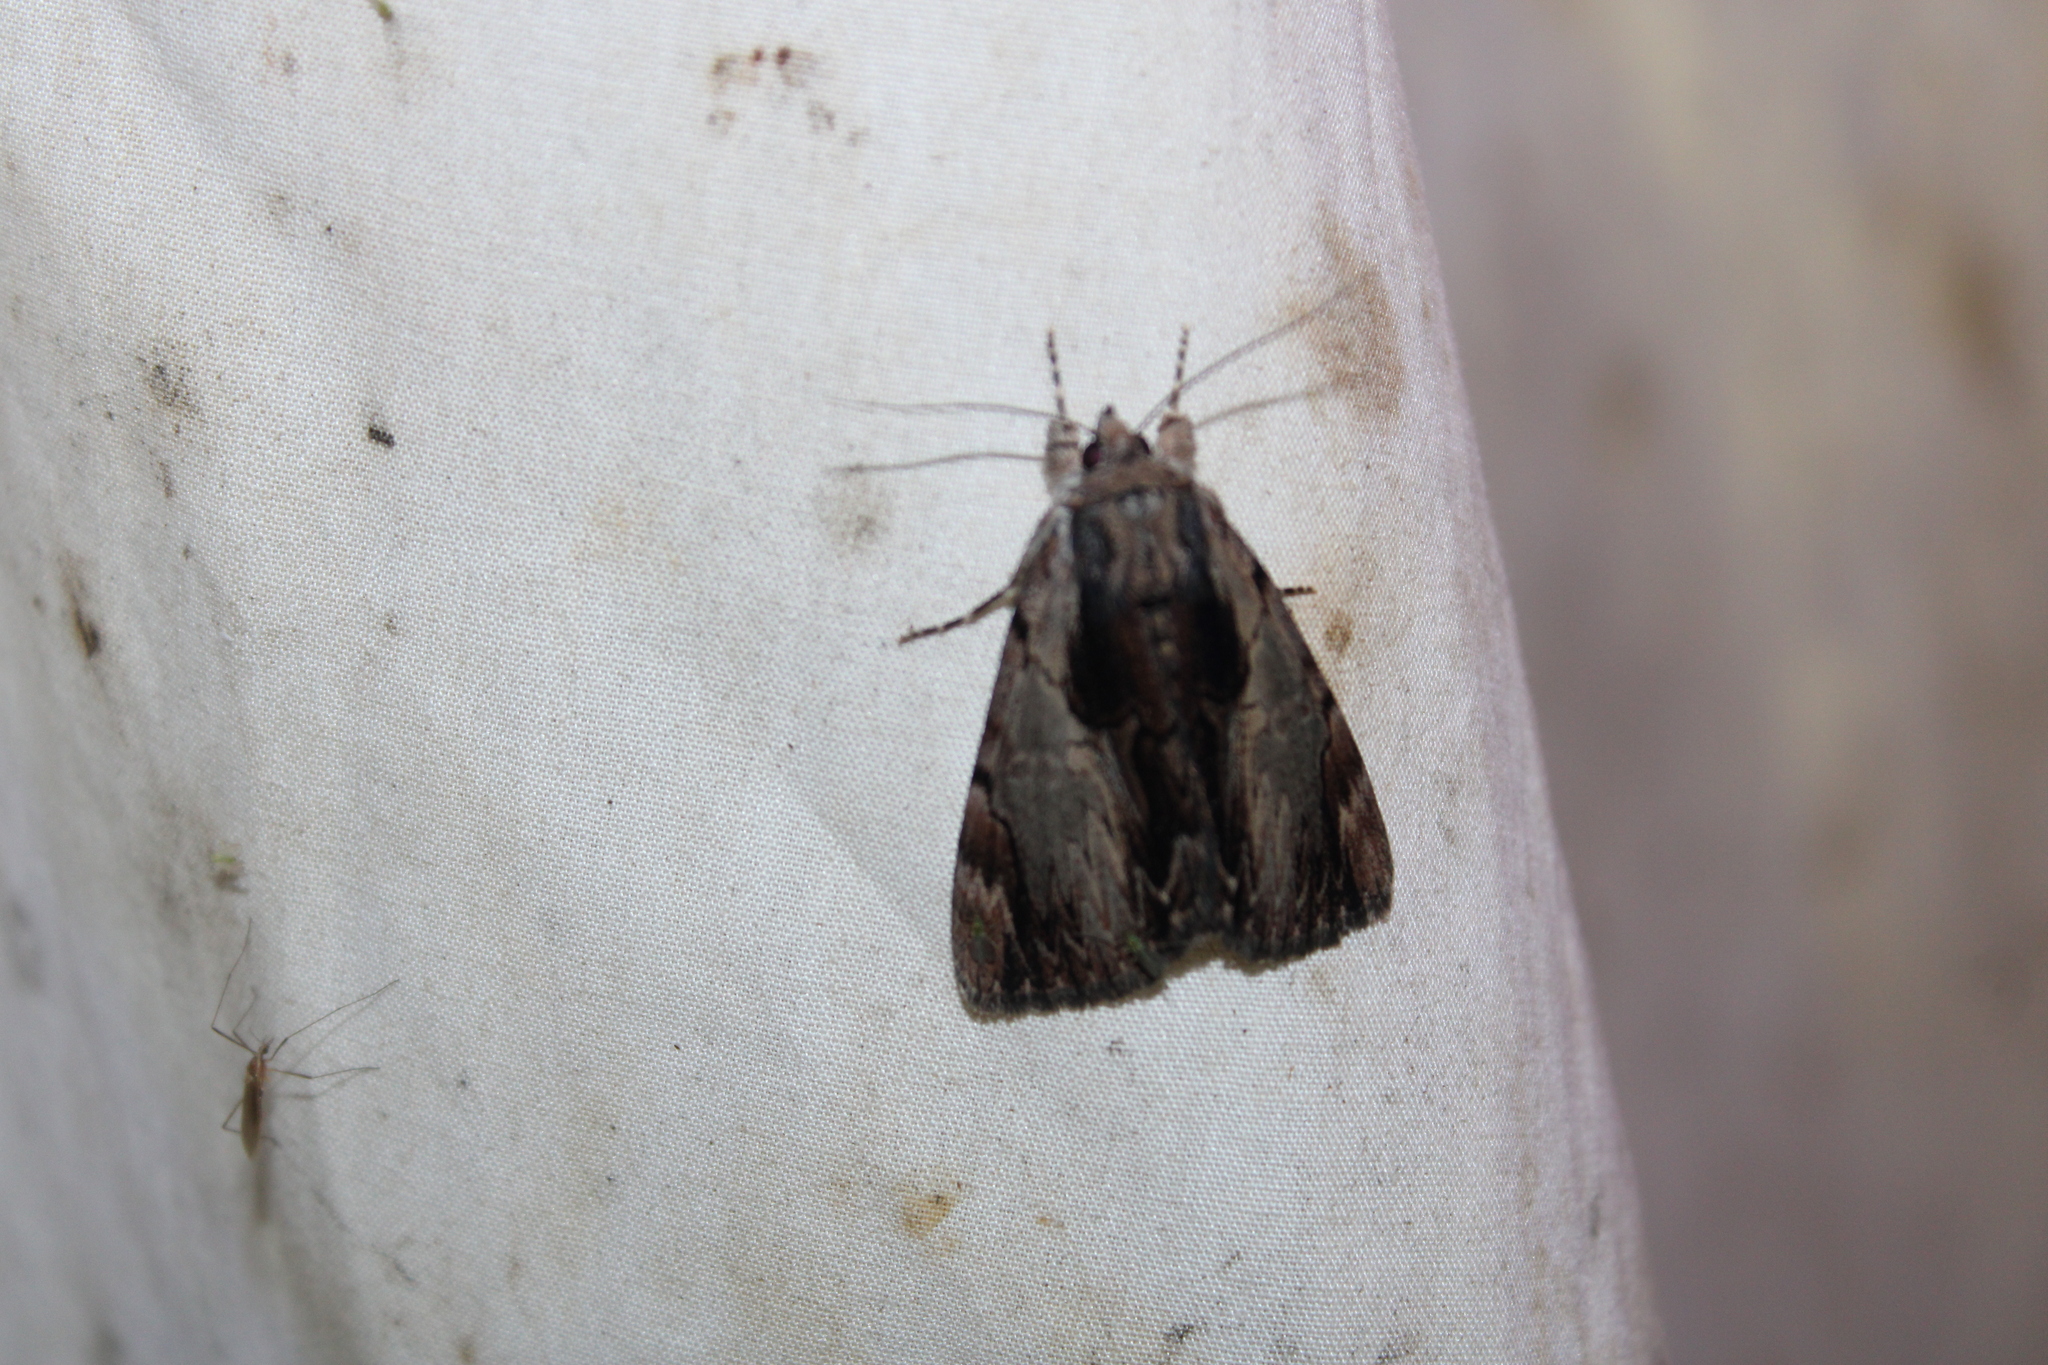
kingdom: Animalia
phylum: Arthropoda
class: Insecta
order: Lepidoptera
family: Erebidae
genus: Catocala
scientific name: Catocala ultronia
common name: Ultronia underwing
